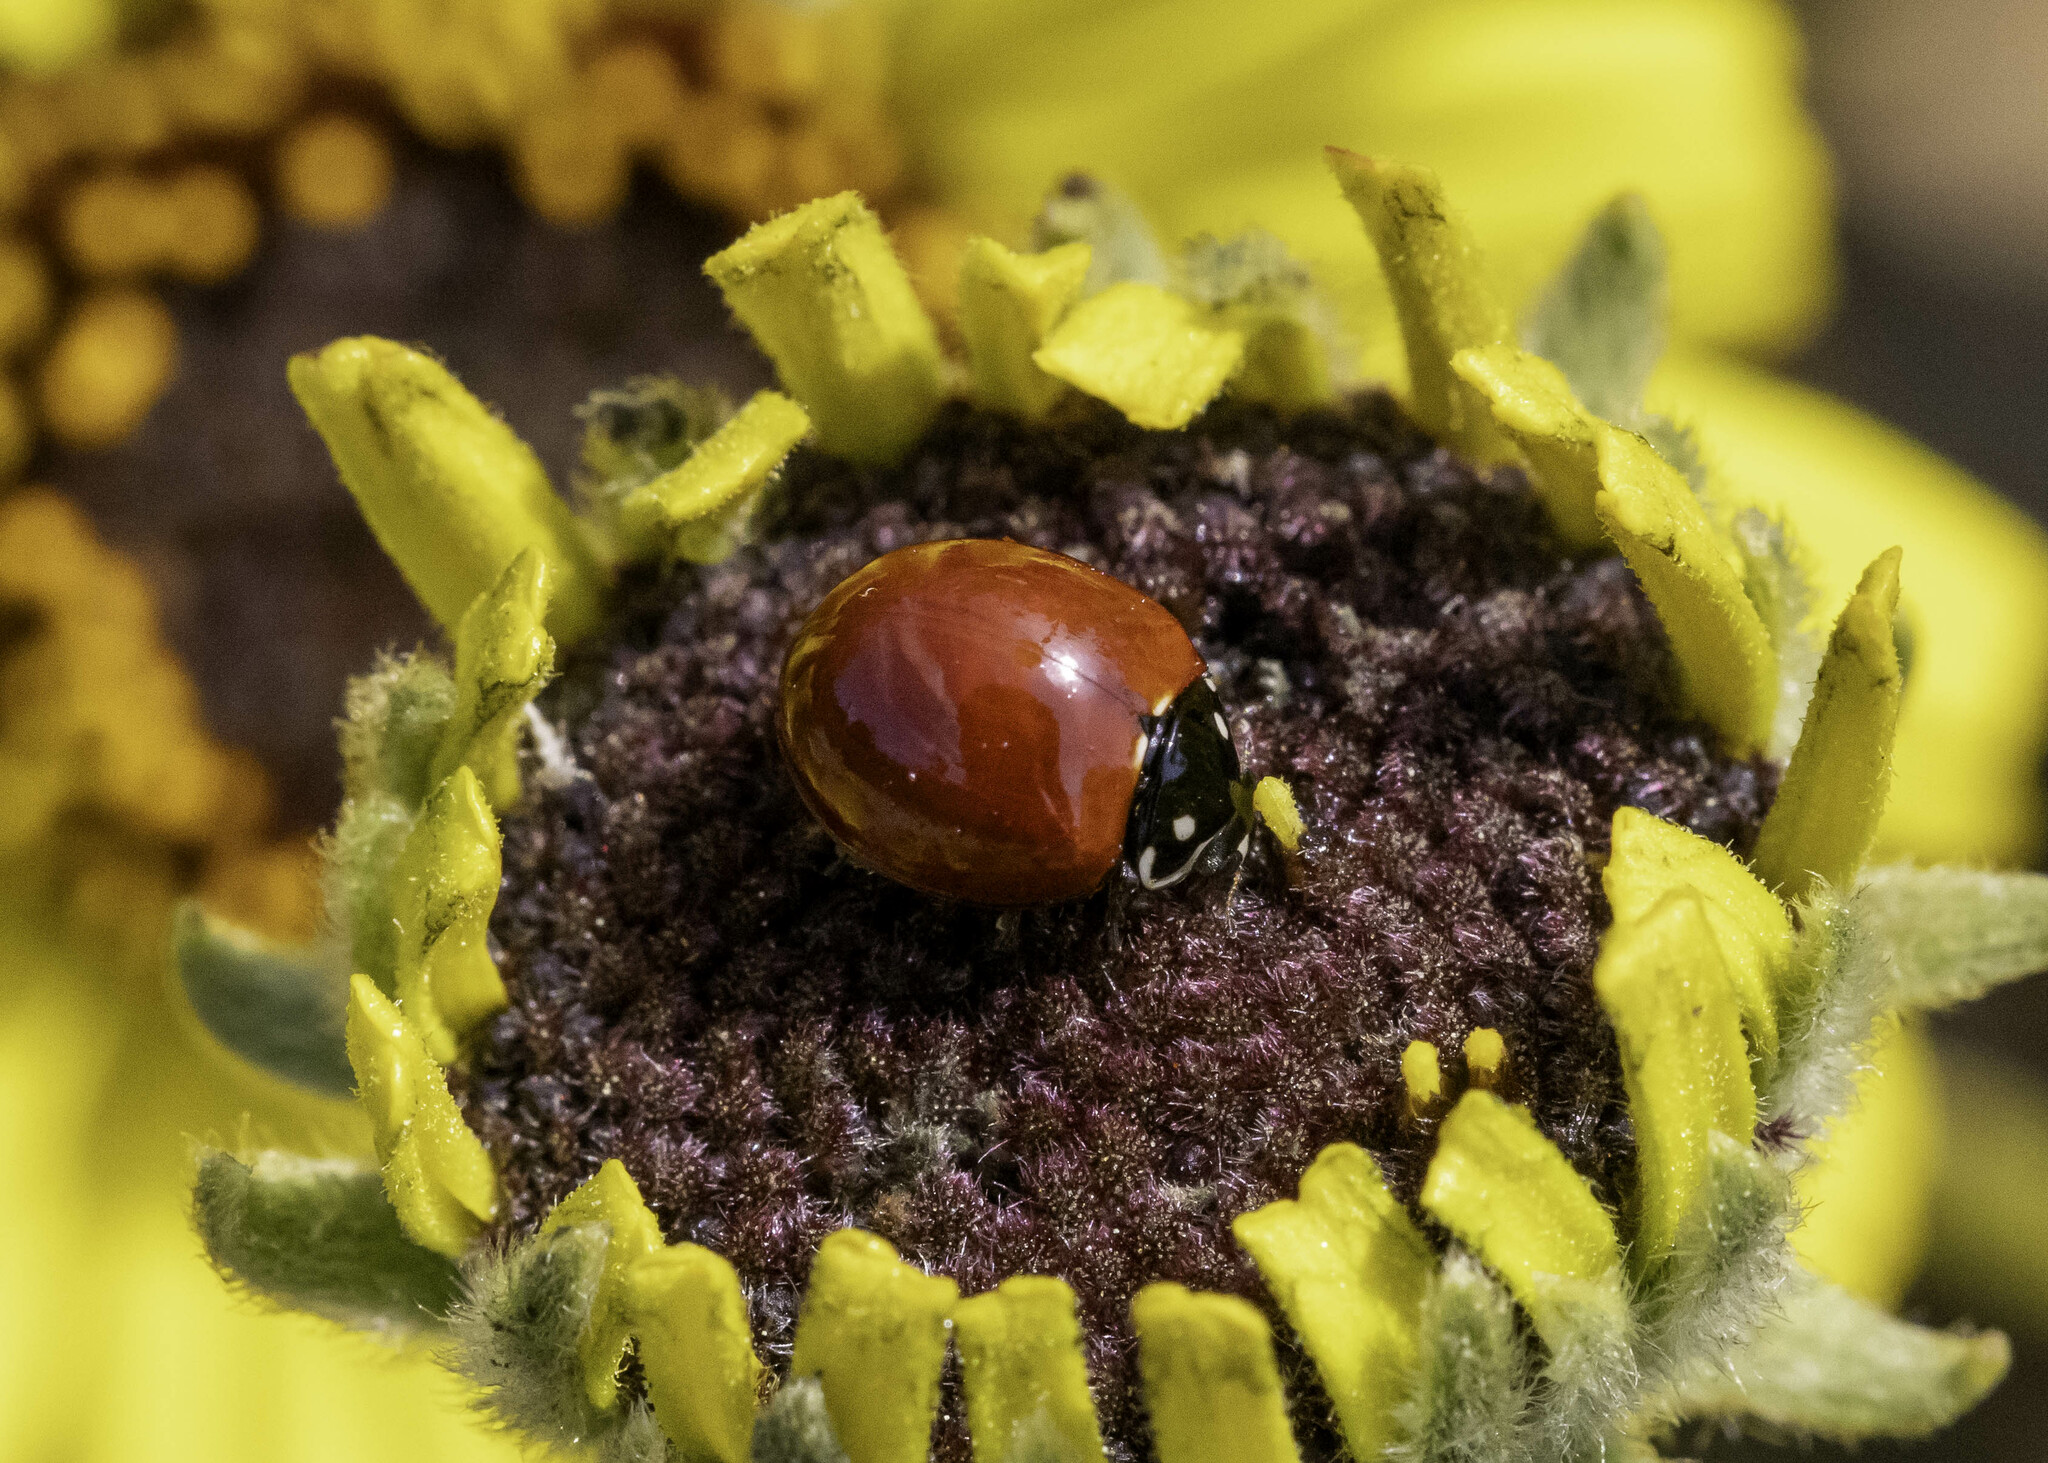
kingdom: Animalia
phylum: Arthropoda
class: Insecta
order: Coleoptera
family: Coccinellidae
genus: Cycloneda
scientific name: Cycloneda sanguinea
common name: Ladybird beetle
